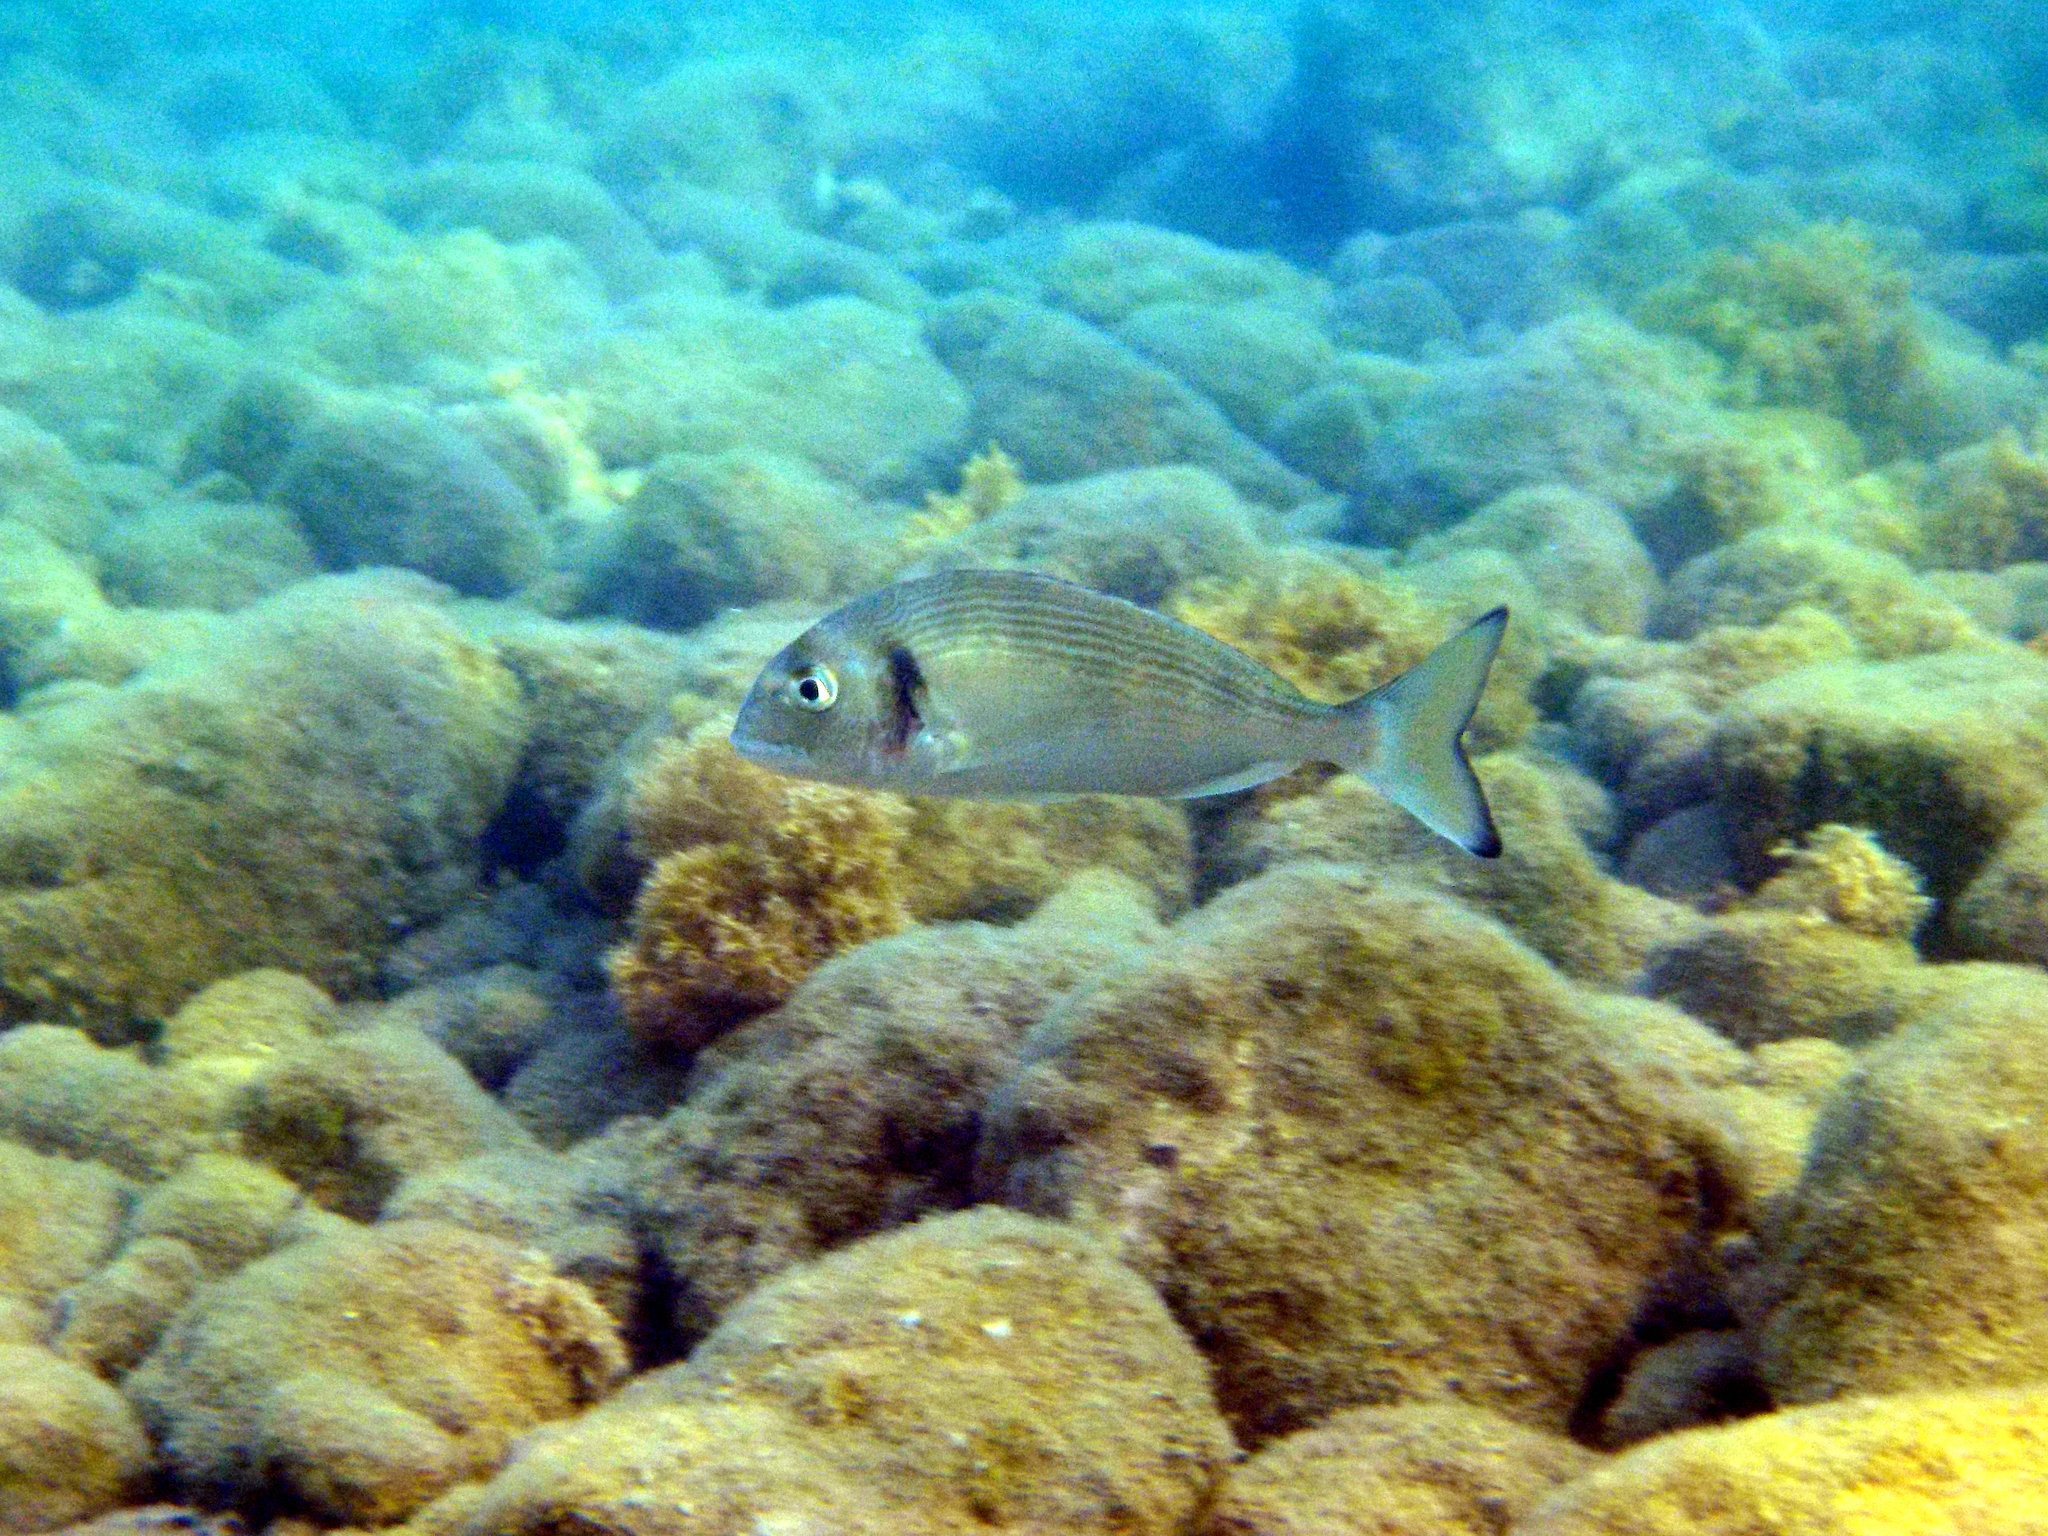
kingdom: Animalia
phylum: Chordata
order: Perciformes
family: Sparidae
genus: Sparus
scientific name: Sparus aurata
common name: Gilthead
